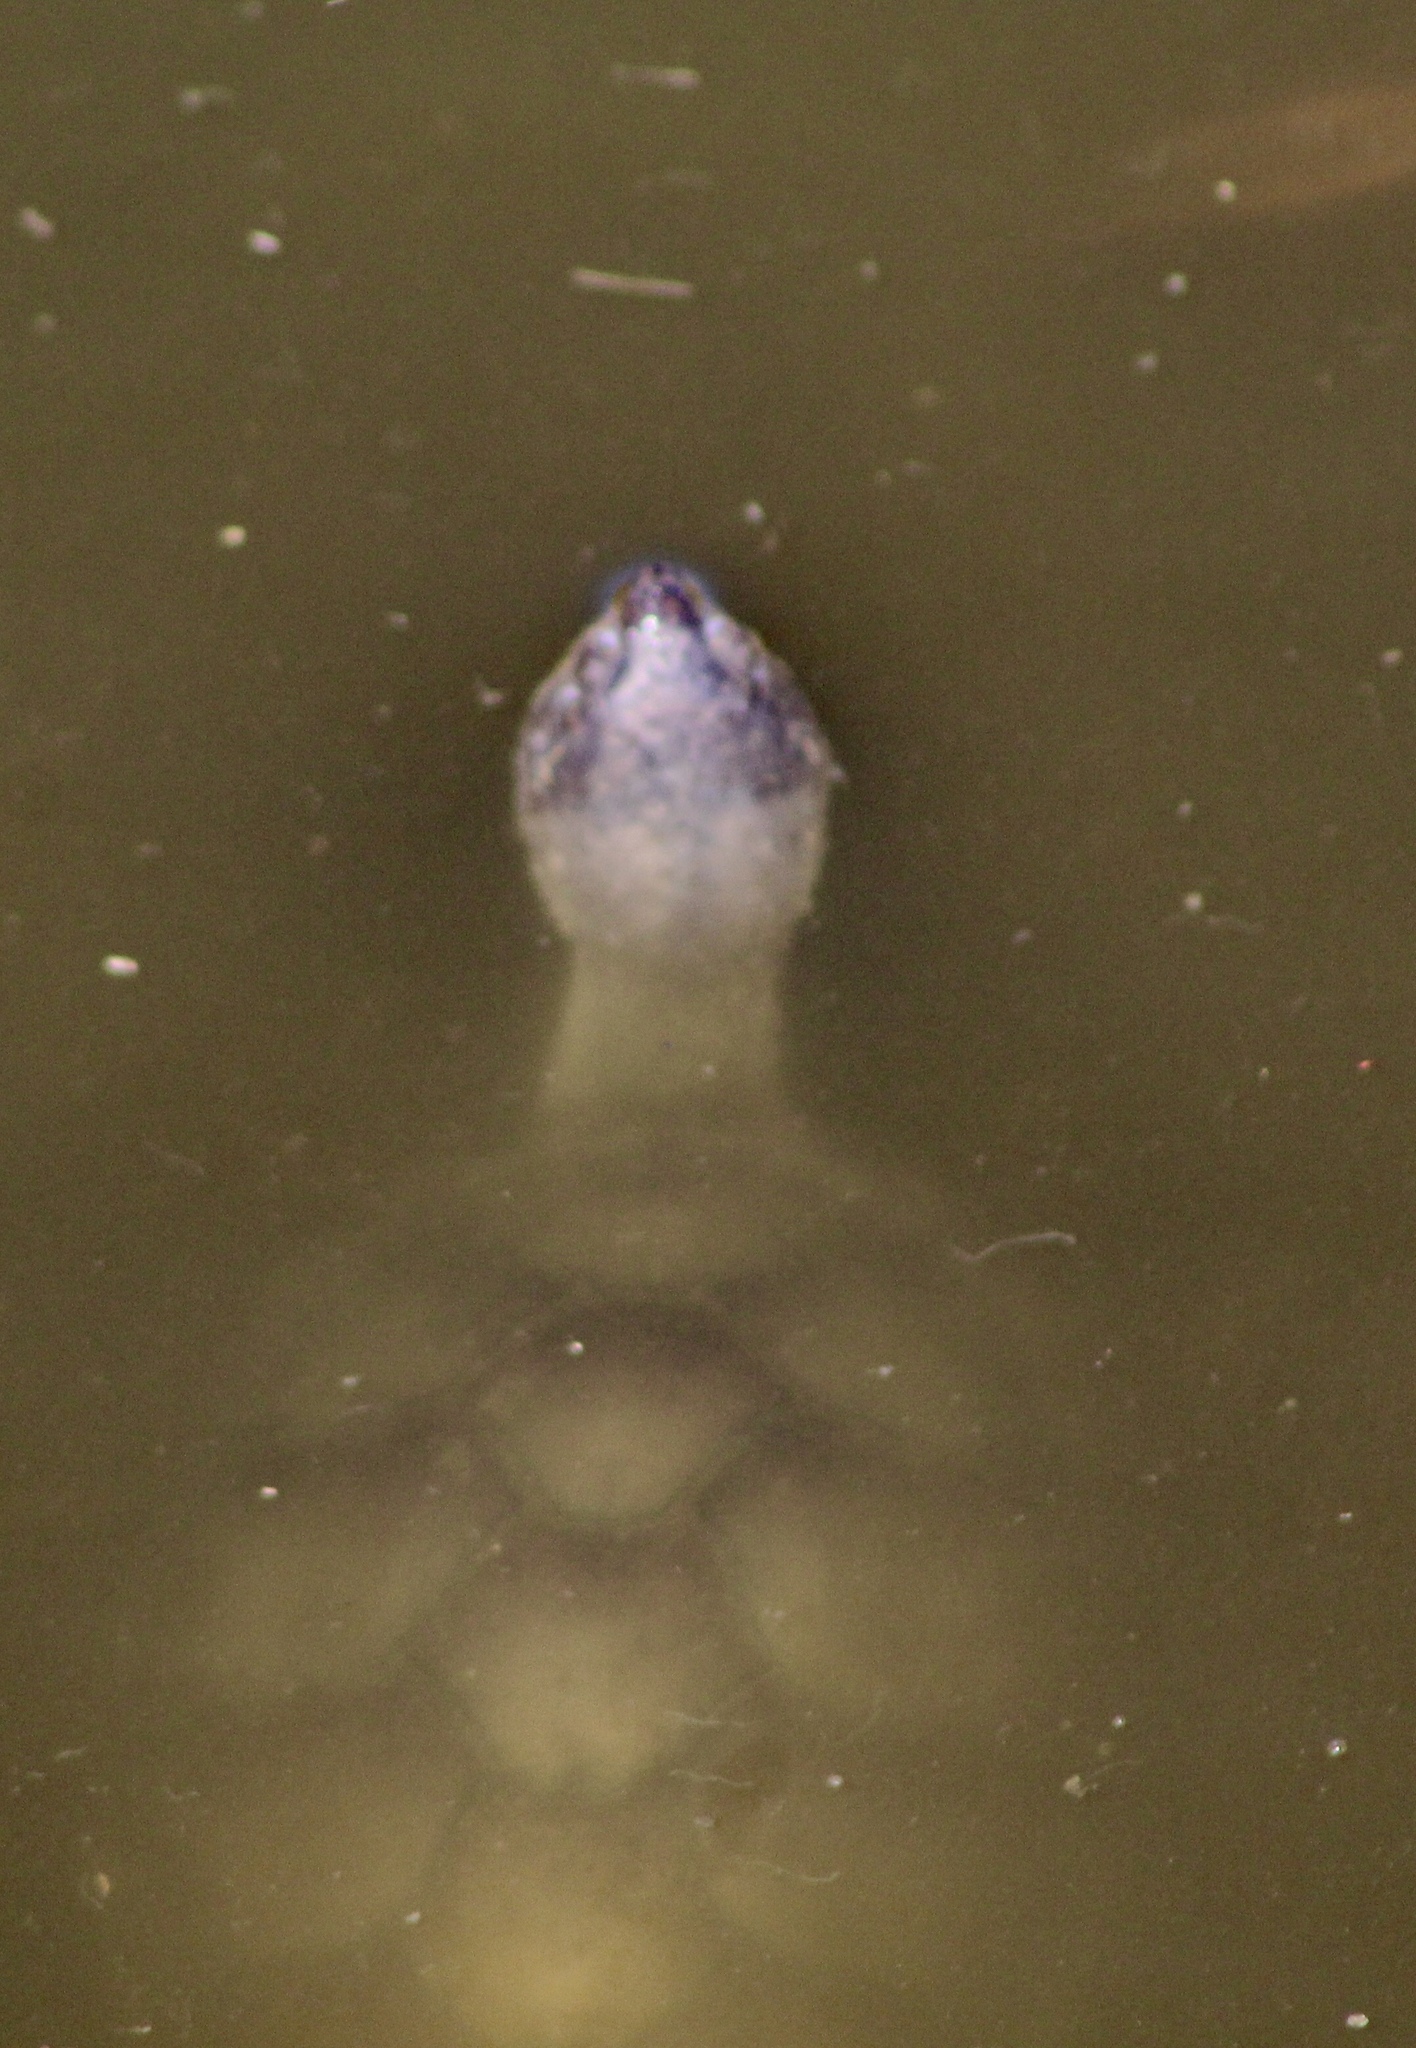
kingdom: Animalia
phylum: Chordata
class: Testudines
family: Kinosternidae
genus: Kinosternon
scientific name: Kinosternon sonoriense
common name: Sonora mud turtle
